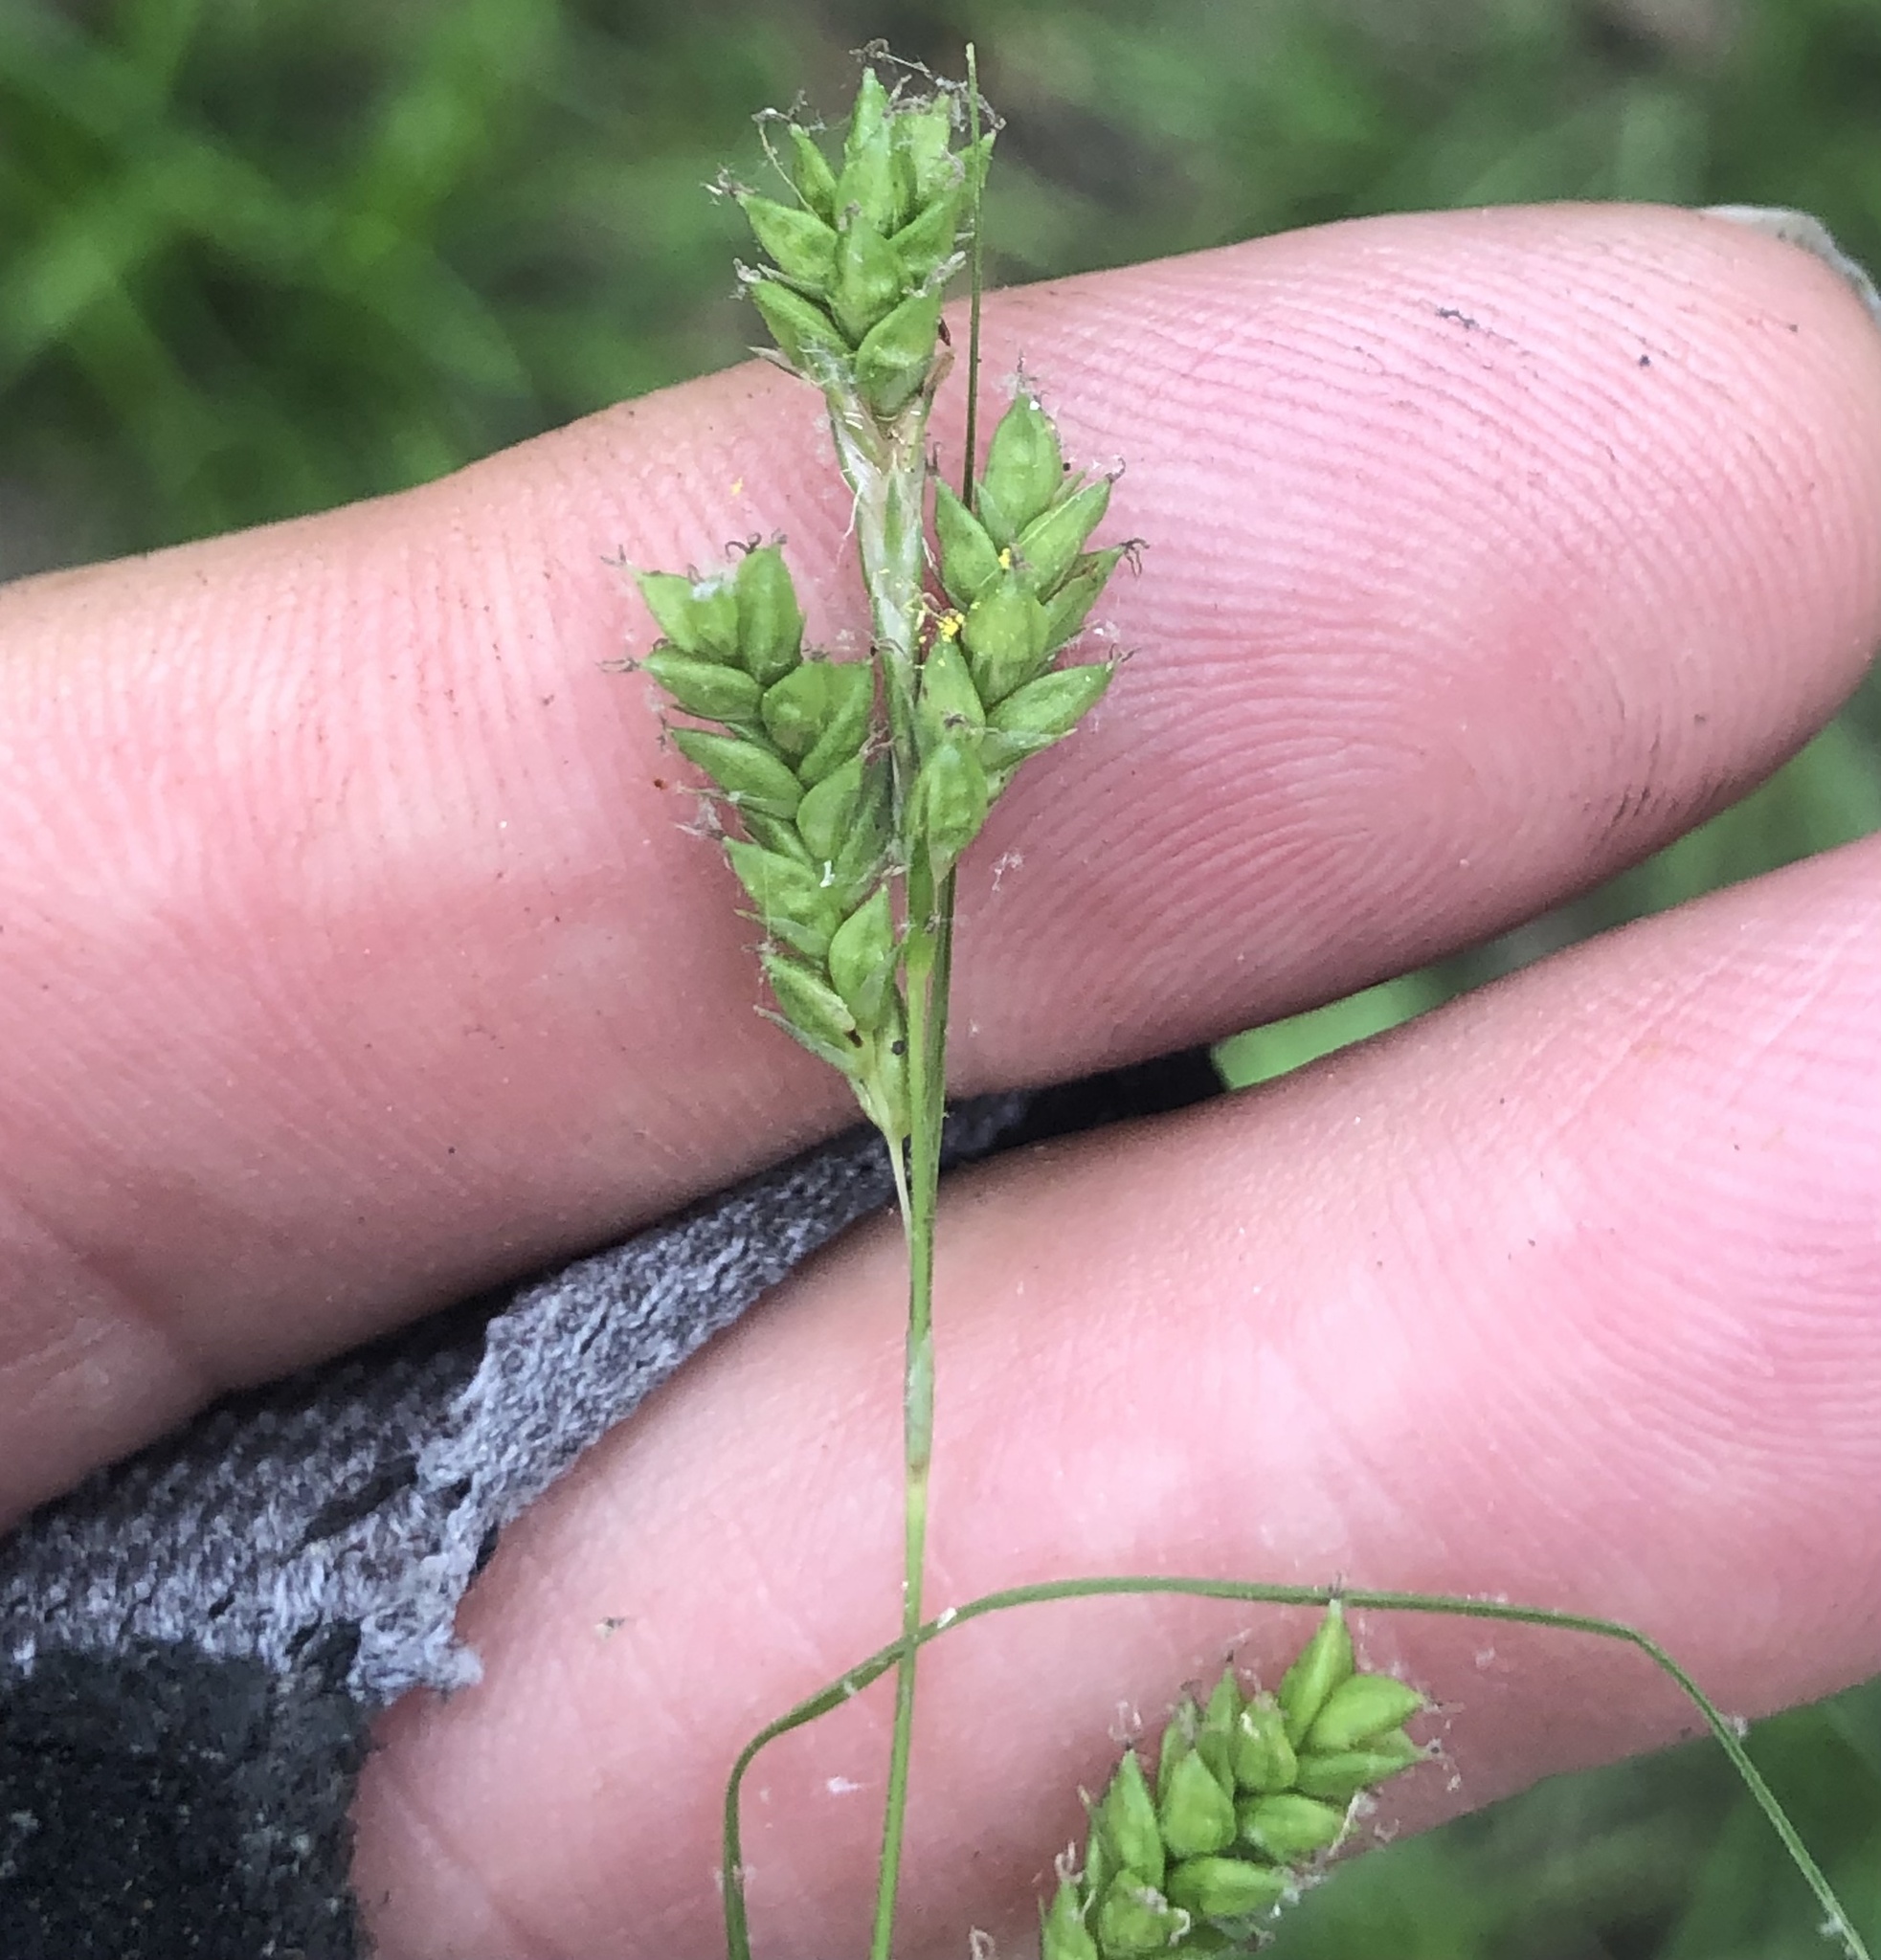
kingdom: Plantae
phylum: Tracheophyta
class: Liliopsida
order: Poales
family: Cyperaceae
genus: Carex
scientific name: Carex oxylepis
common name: Sharpscale sedge
